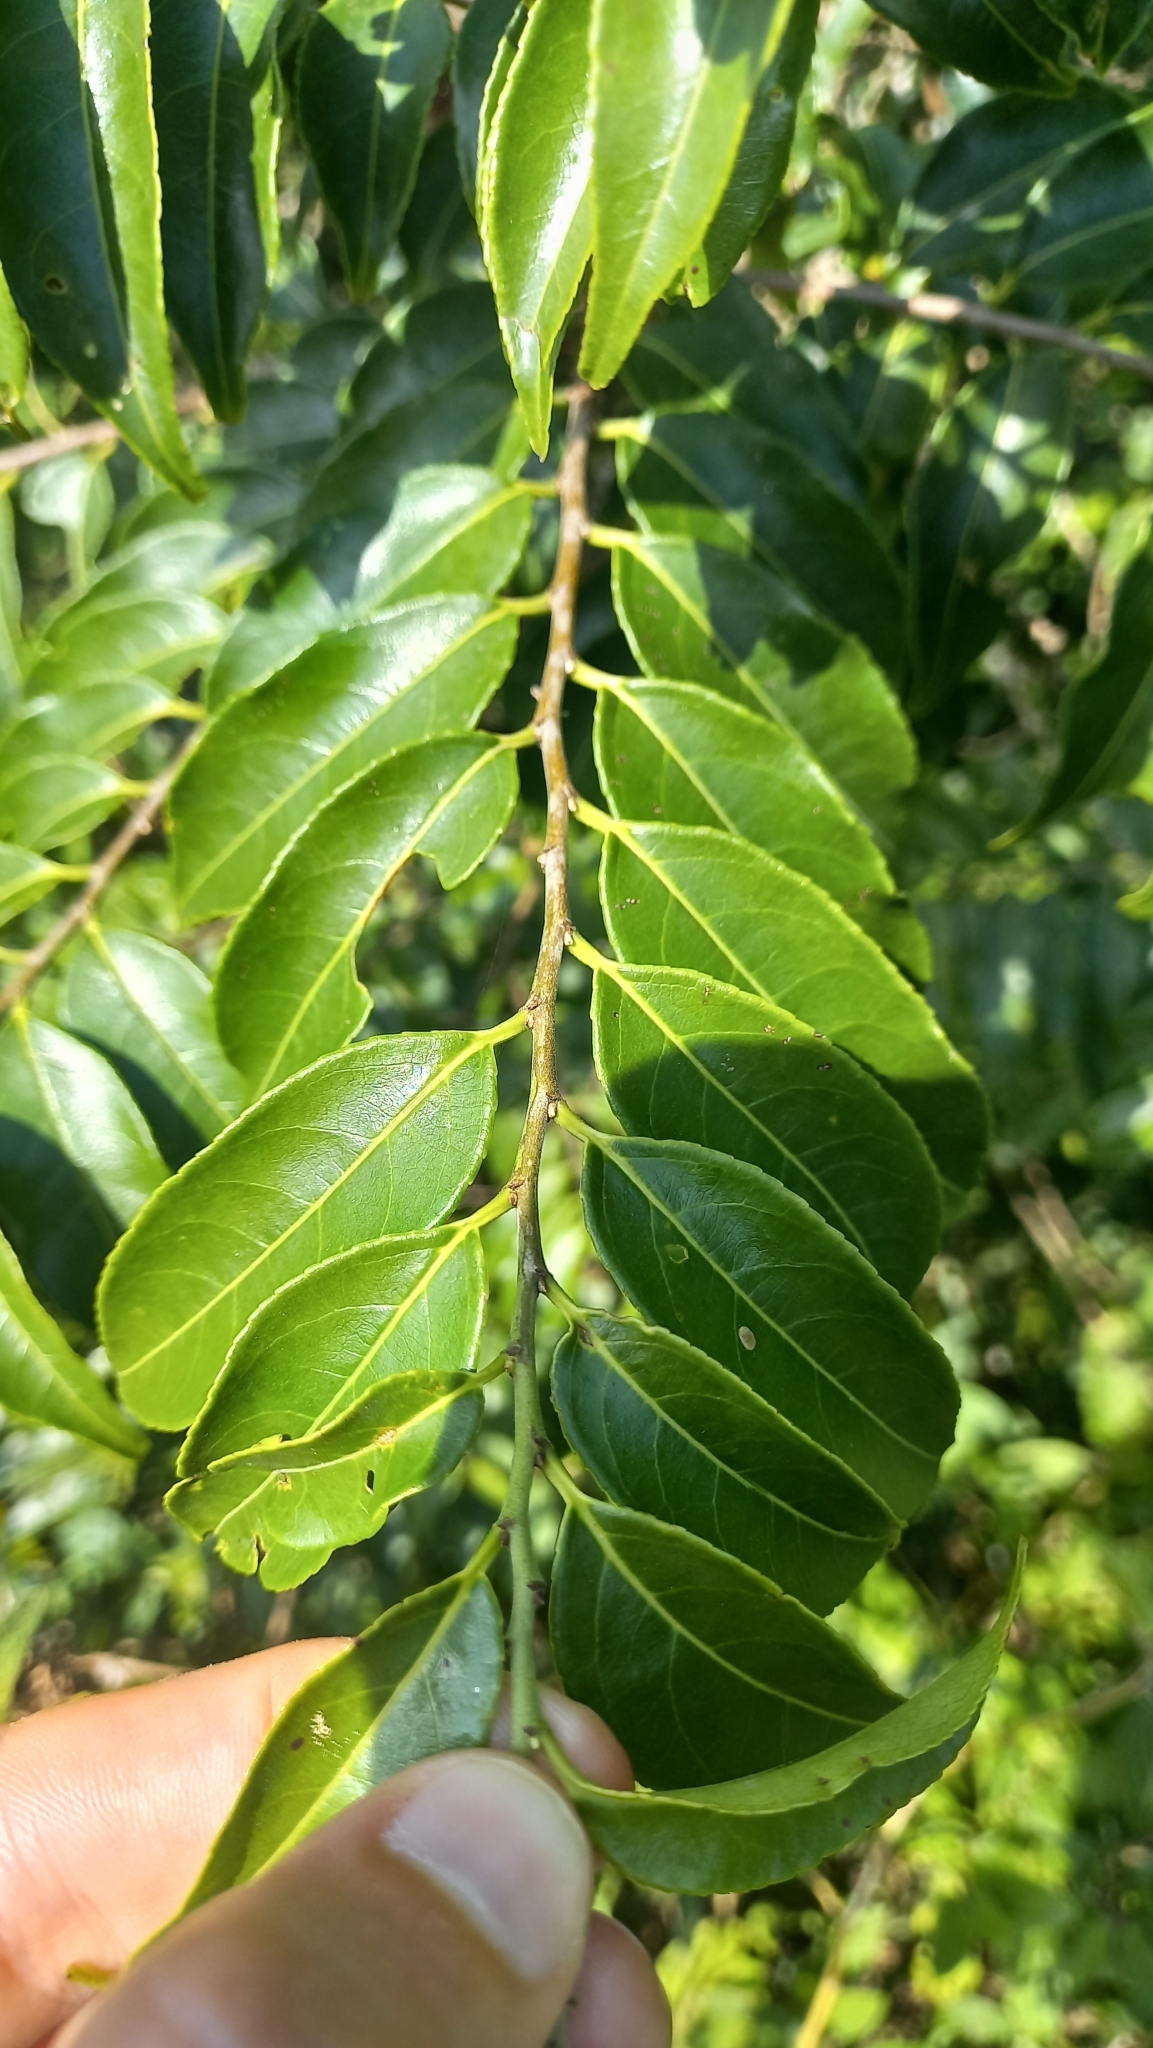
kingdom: Plantae
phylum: Tracheophyta
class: Magnoliopsida
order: Malpighiales
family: Salicaceae
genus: Casearia
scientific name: Casearia sylvestris
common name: Wild sage
